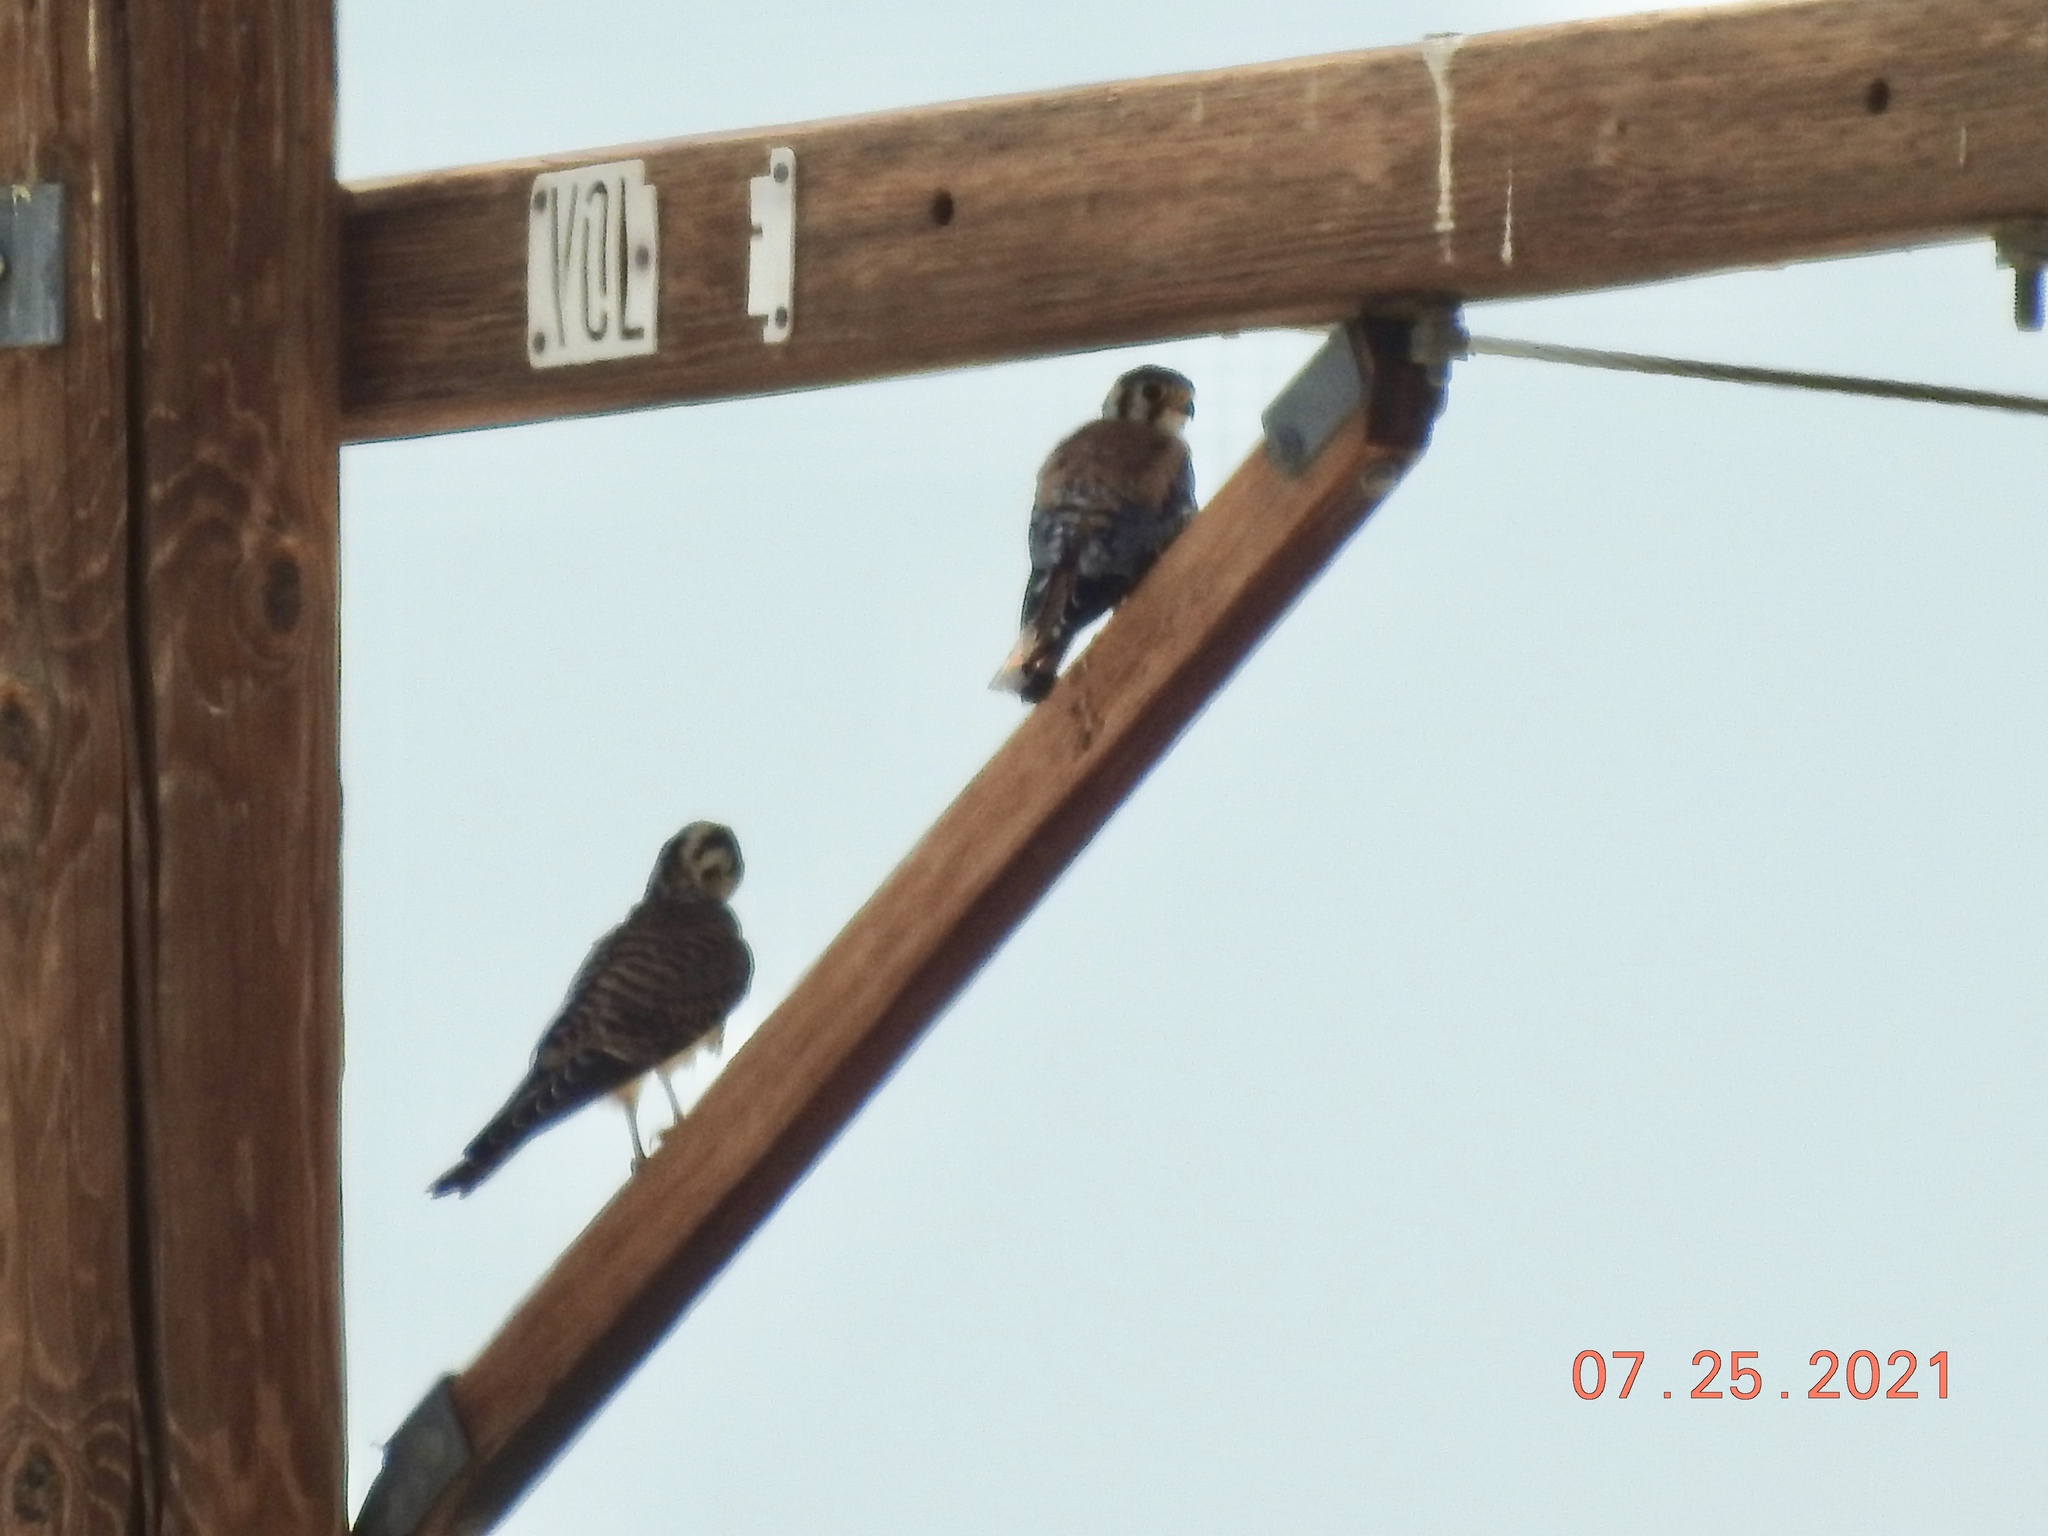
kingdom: Animalia
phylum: Chordata
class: Aves
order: Falconiformes
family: Falconidae
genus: Falco
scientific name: Falco sparverius
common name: American kestrel
